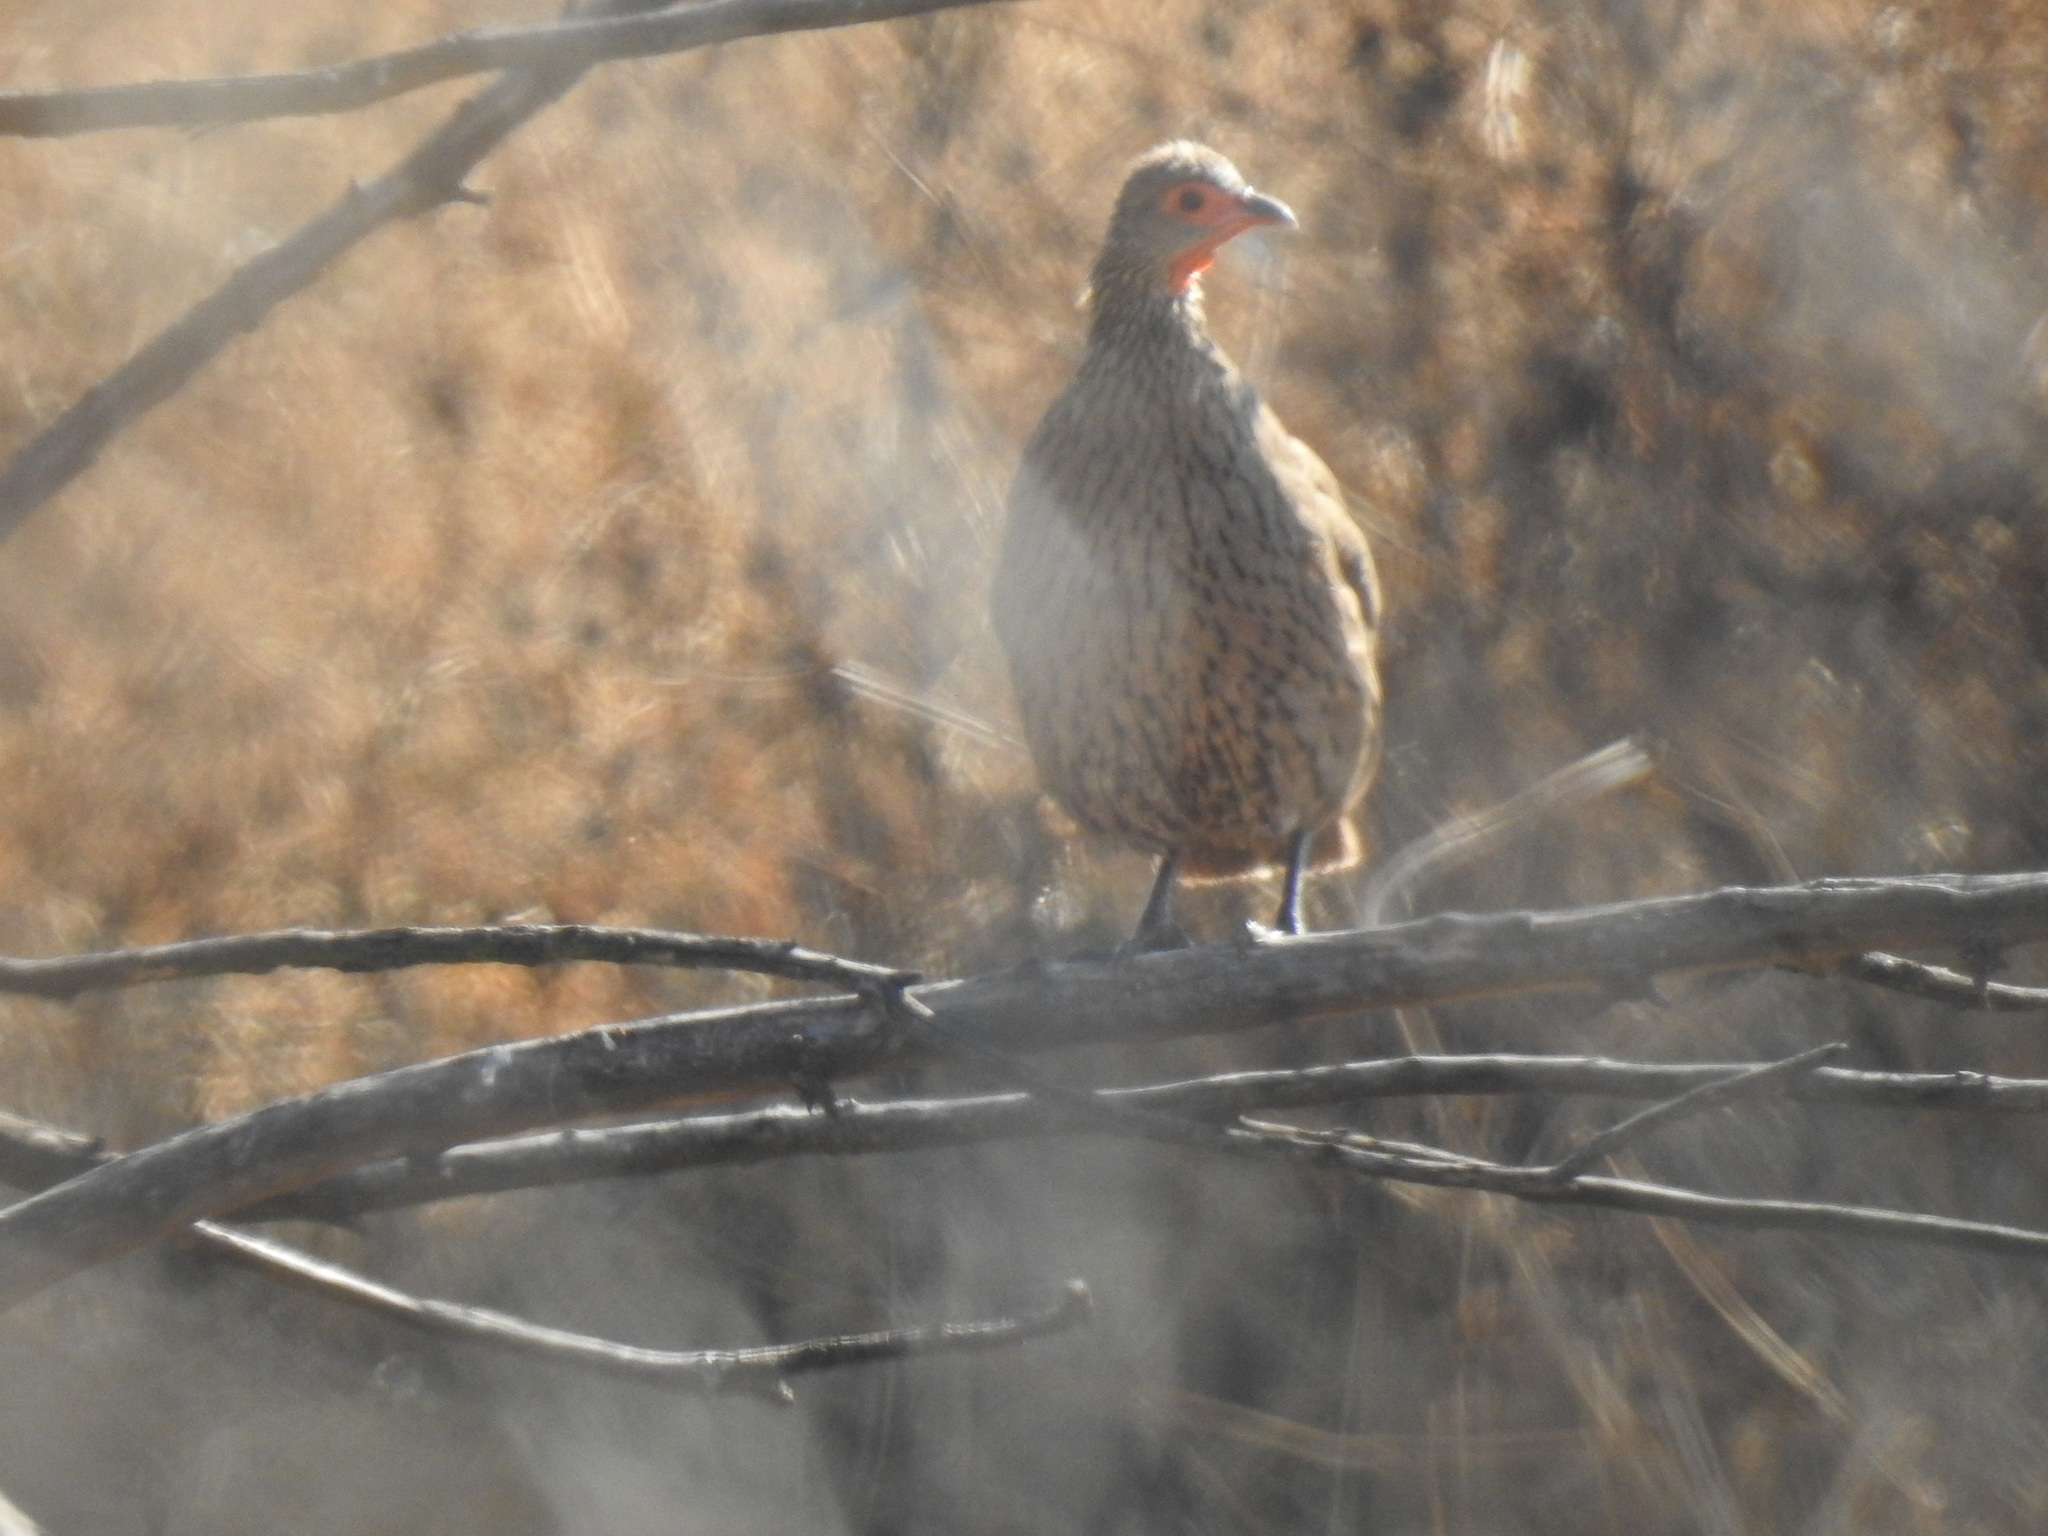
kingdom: Animalia
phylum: Chordata
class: Aves
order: Galliformes
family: Phasianidae
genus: Pternistis
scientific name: Pternistis swainsonii
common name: Swainson's spurfowl
